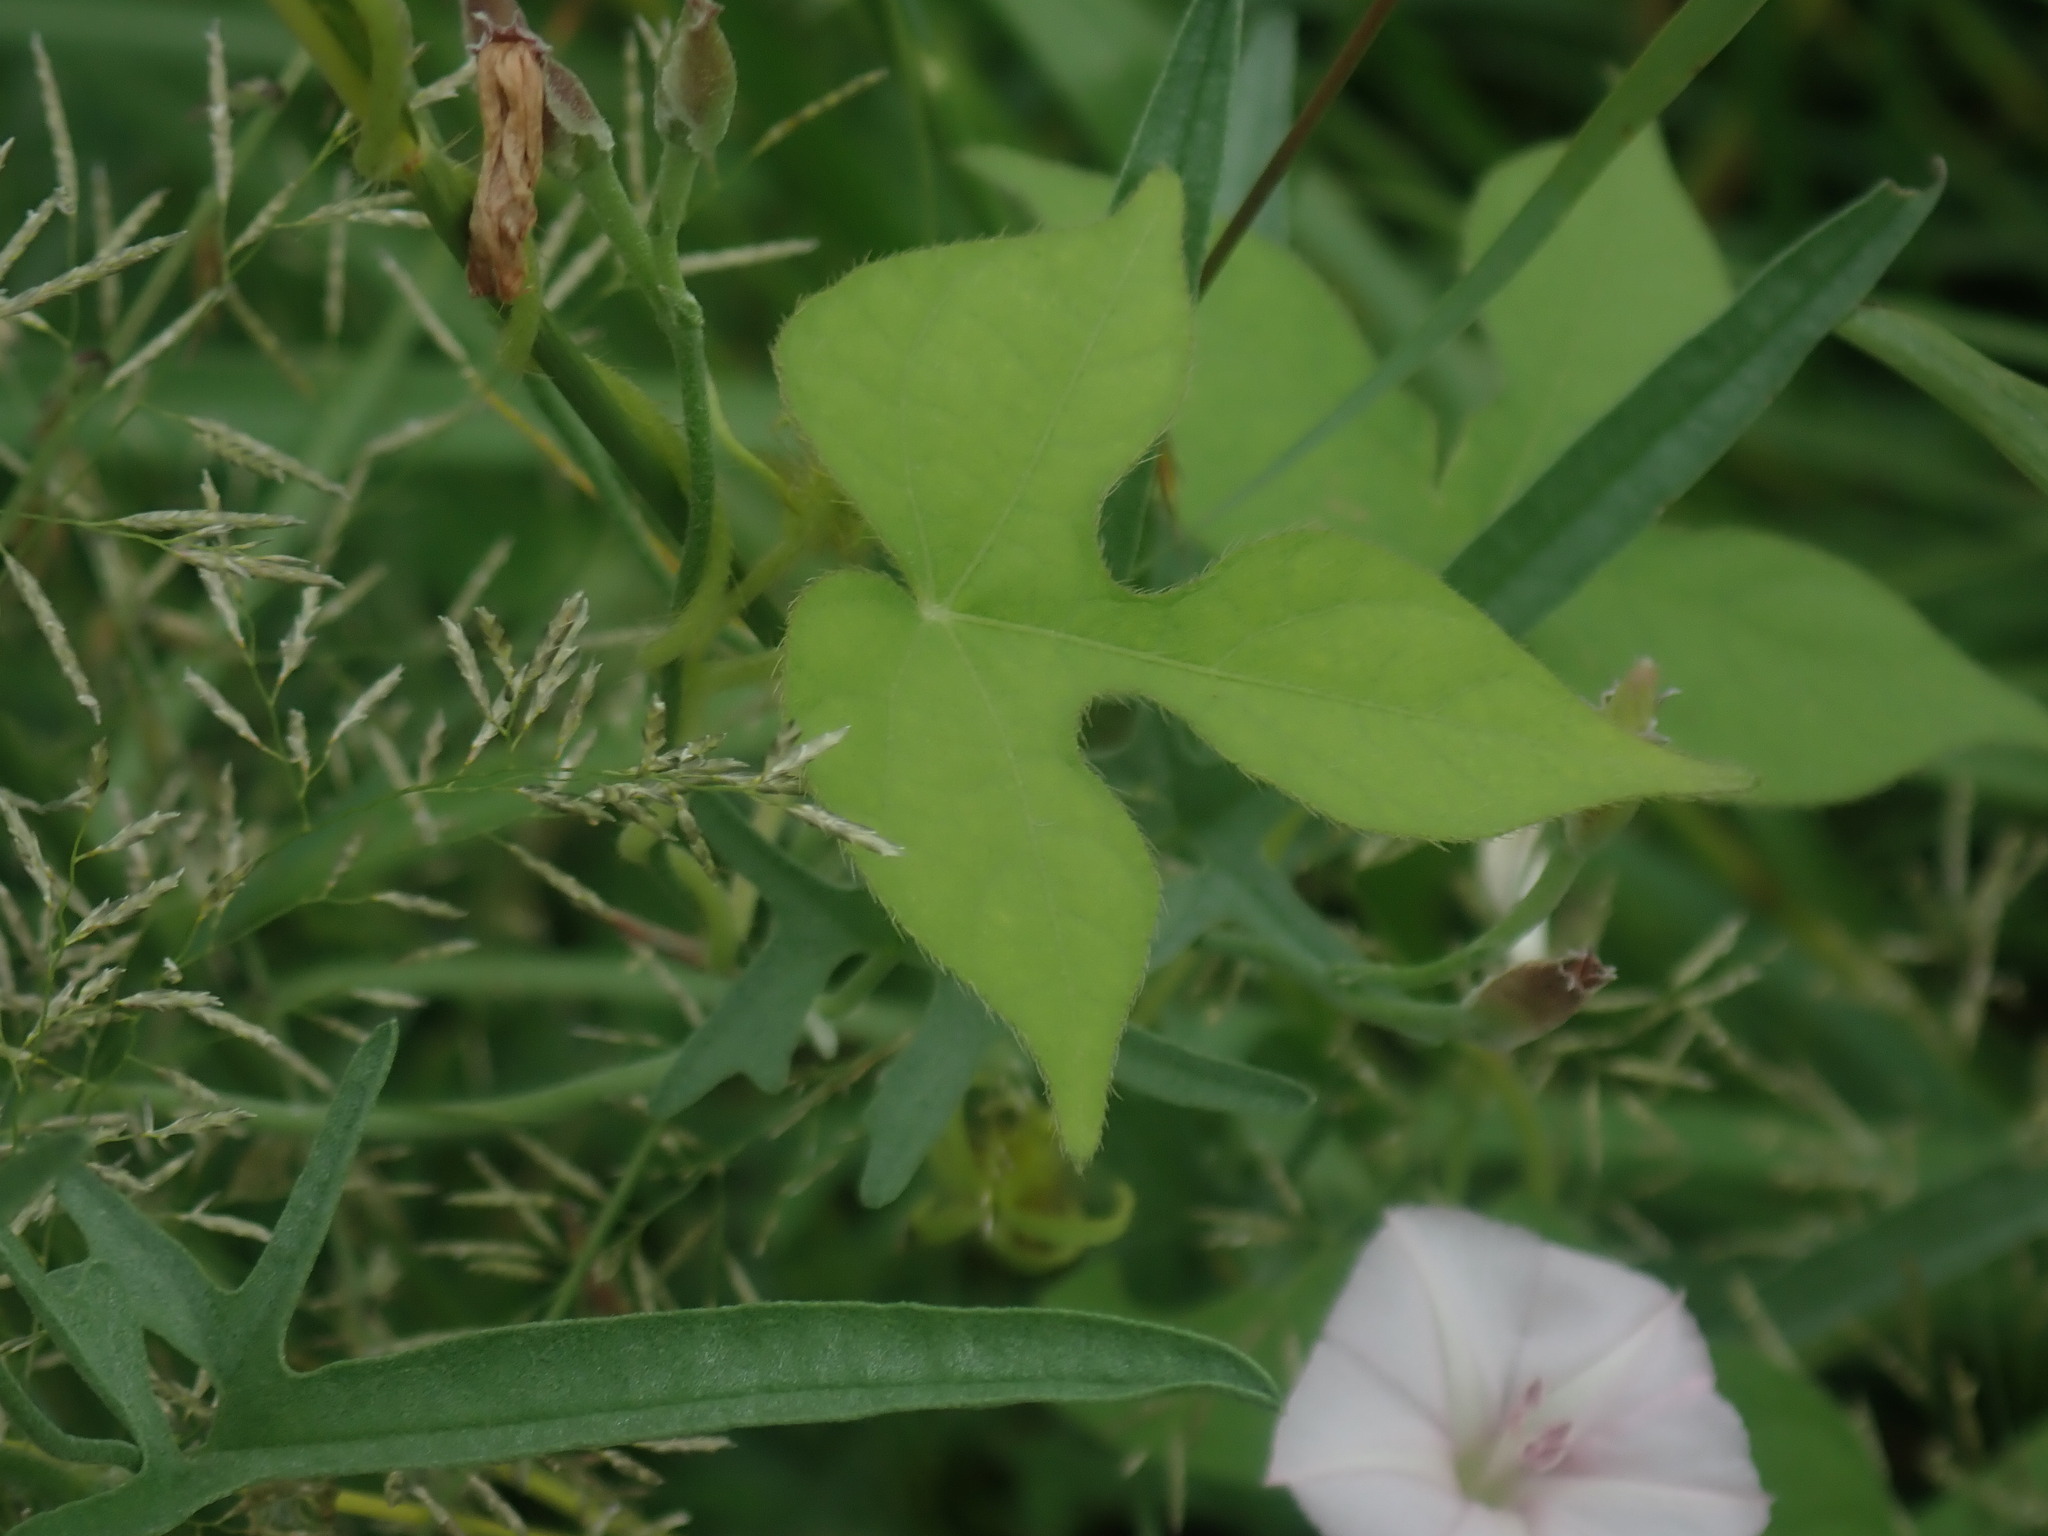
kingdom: Plantae
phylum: Tracheophyta
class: Magnoliopsida
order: Solanales
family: Convolvulaceae
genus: Ipomoea
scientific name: Ipomoea hederacea
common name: Ivy-leaved morning-glory
